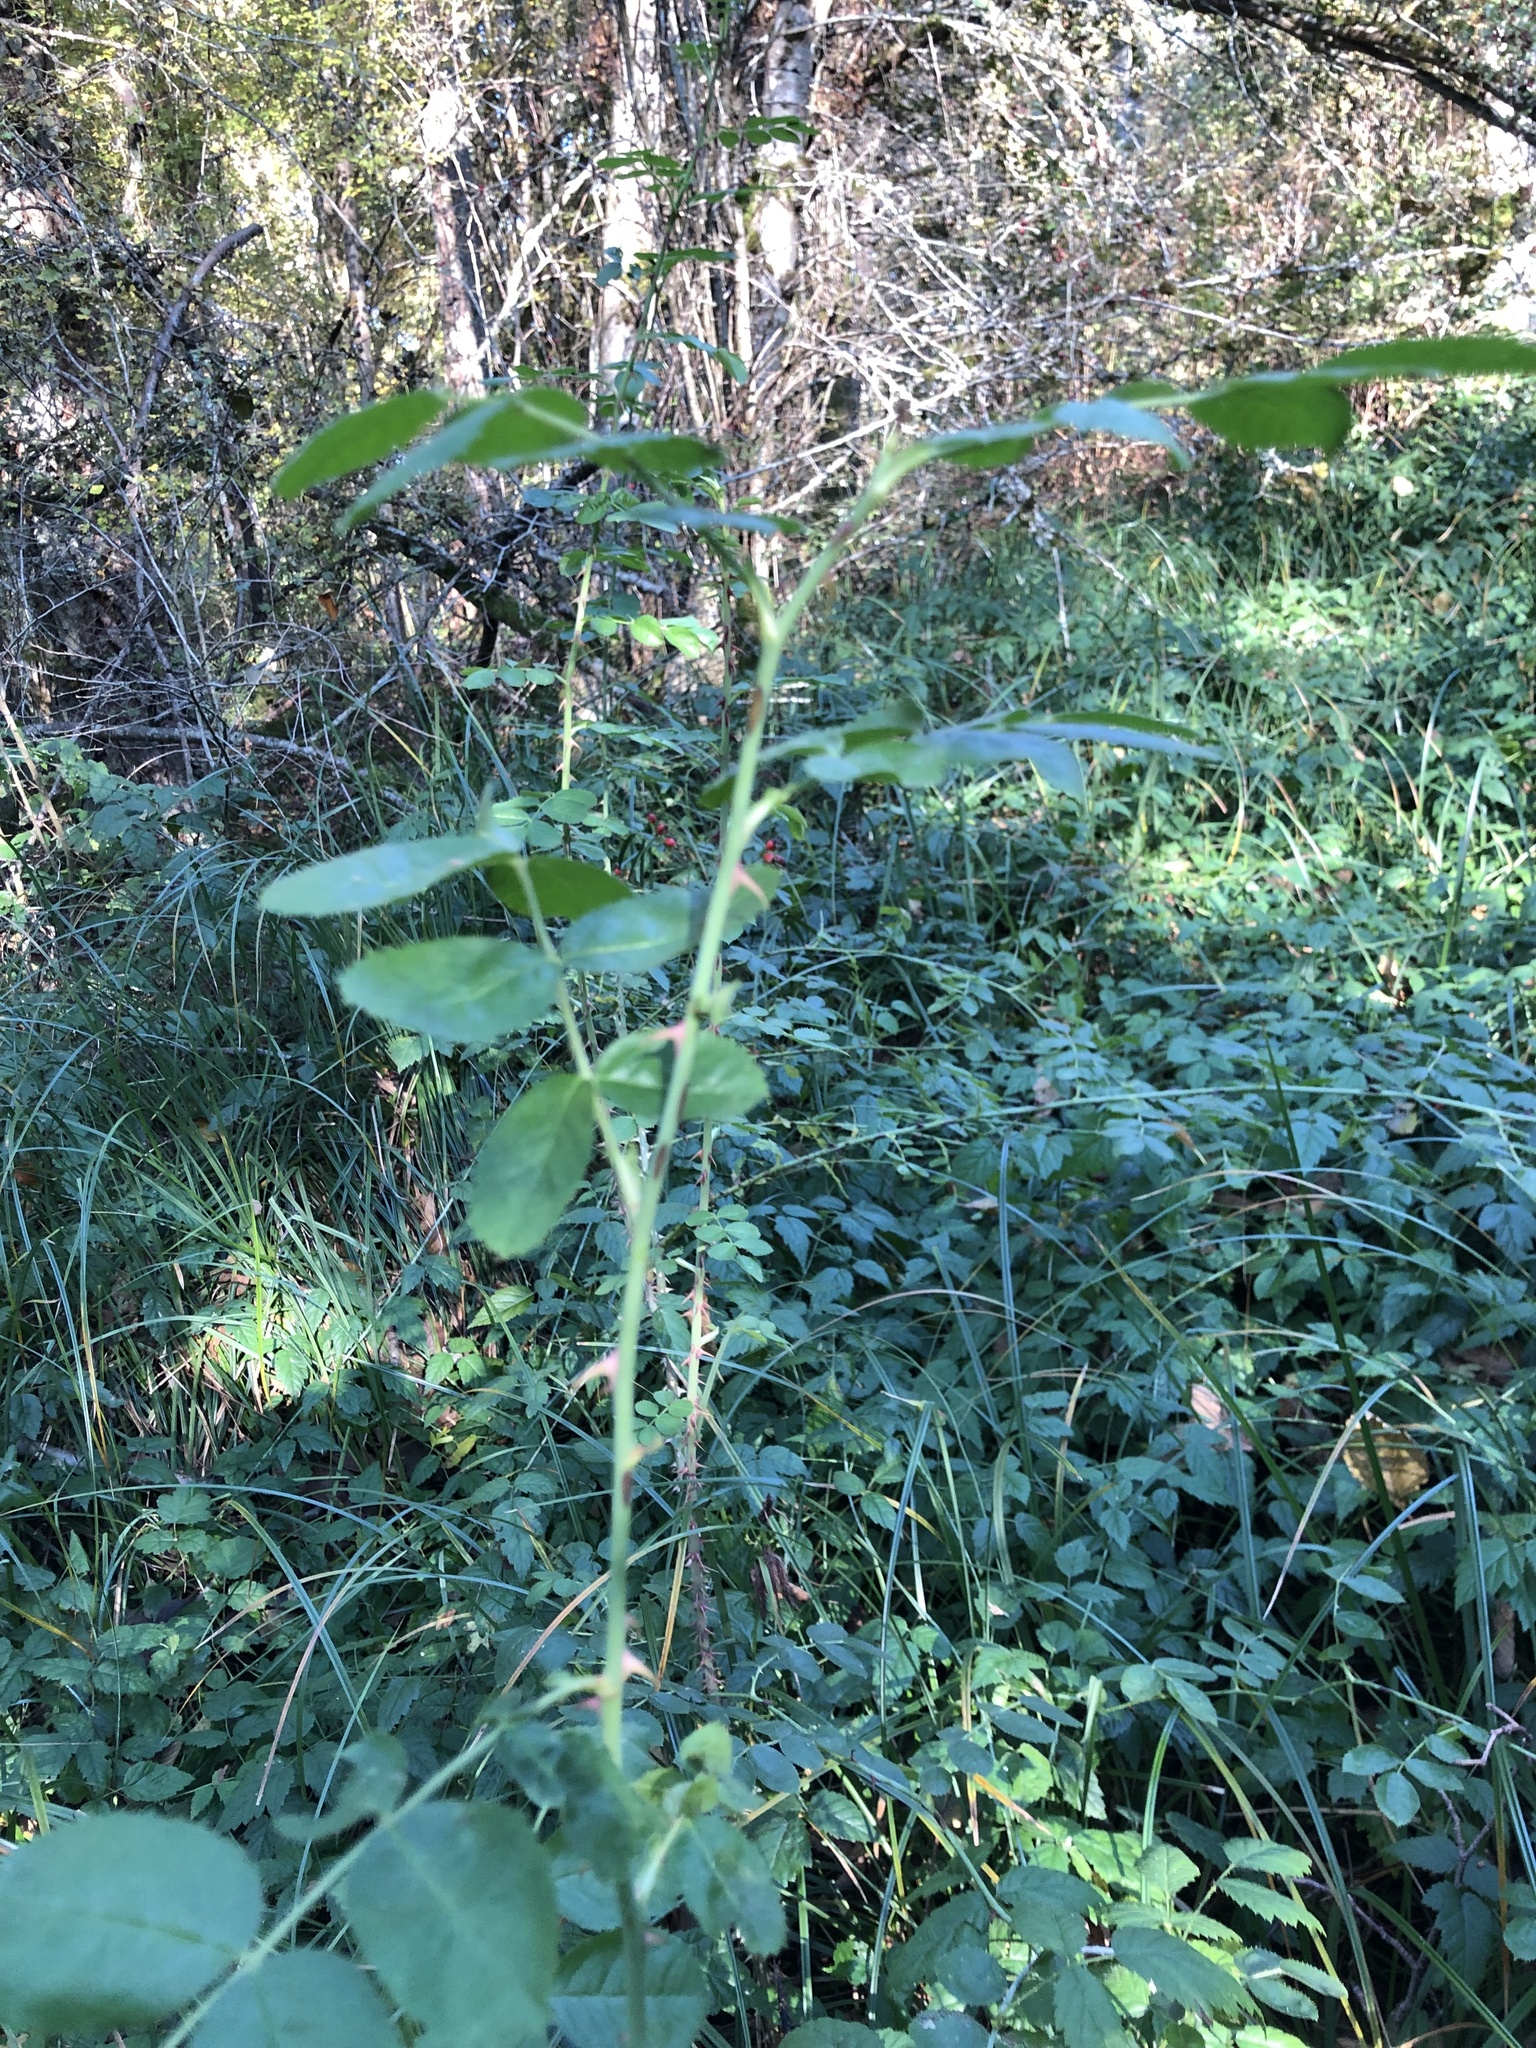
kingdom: Plantae
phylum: Tracheophyta
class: Magnoliopsida
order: Rosales
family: Rosaceae
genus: Rosa
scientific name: Rosa nutkana
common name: Nootka rose
